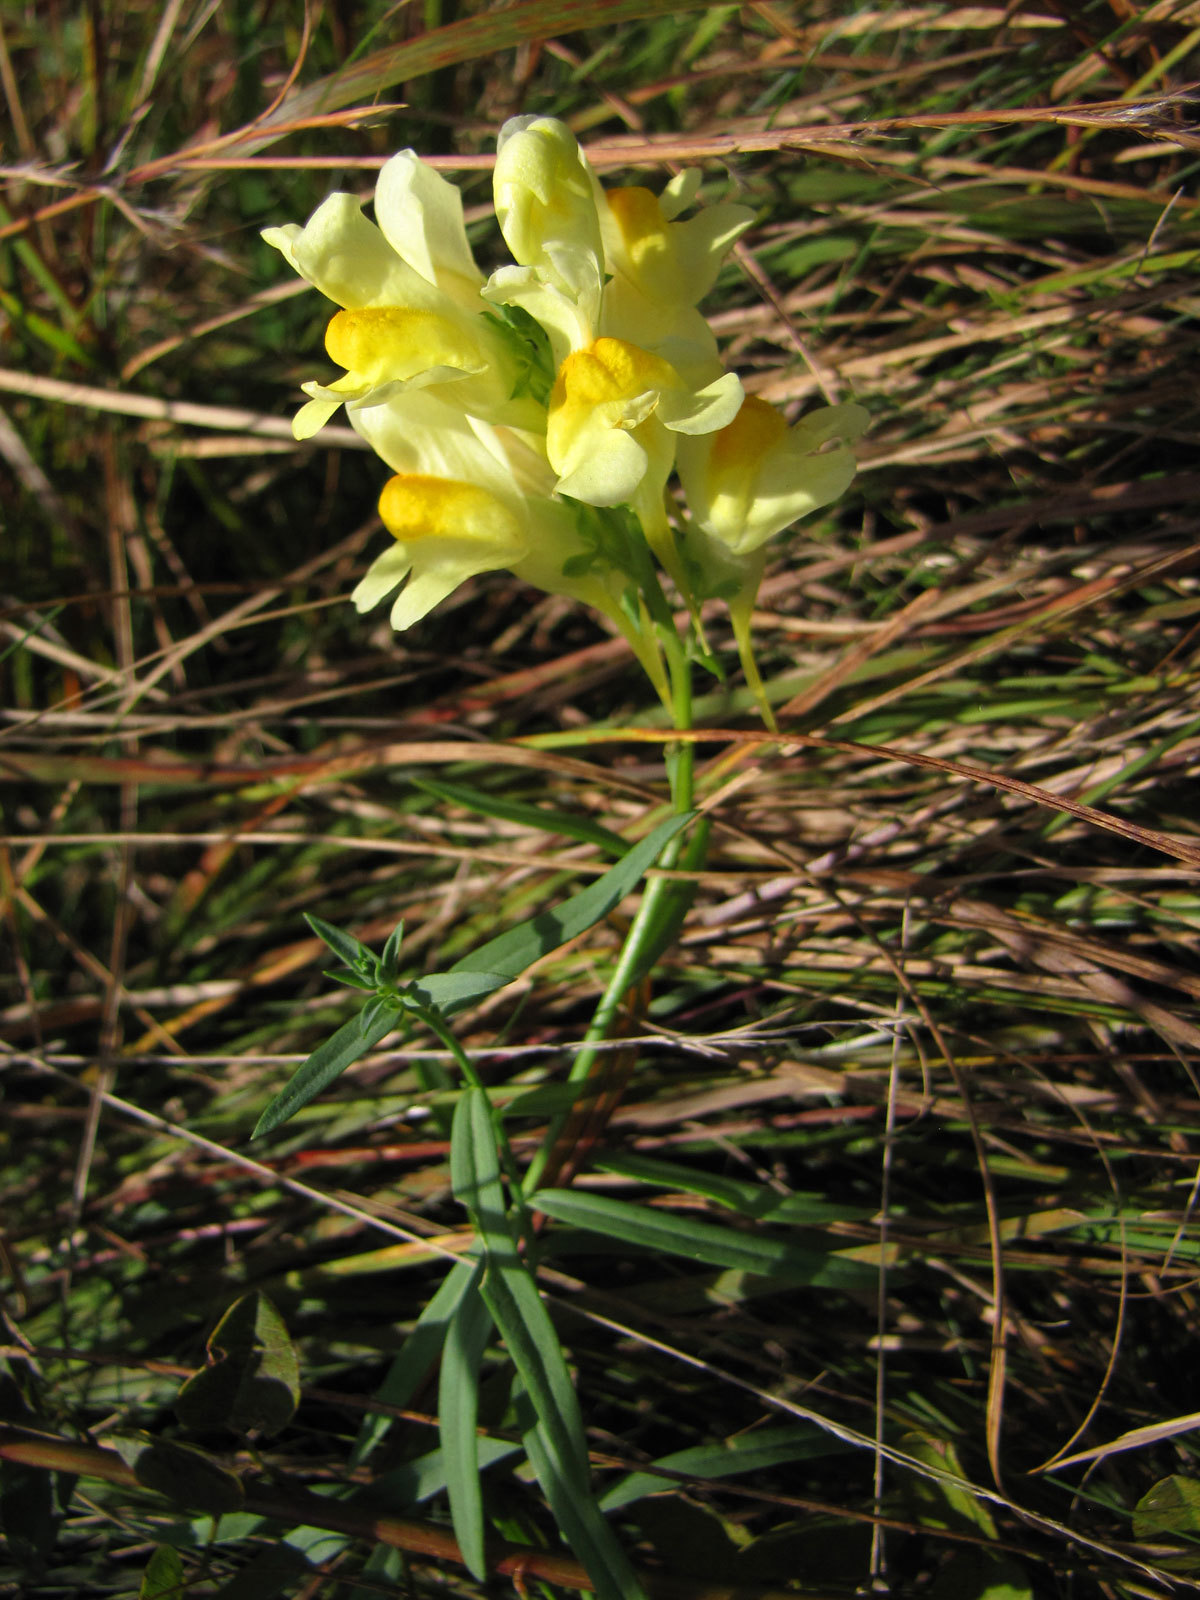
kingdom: Plantae
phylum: Tracheophyta
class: Magnoliopsida
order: Lamiales
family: Plantaginaceae
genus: Linaria
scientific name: Linaria vulgaris
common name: Butter and eggs
